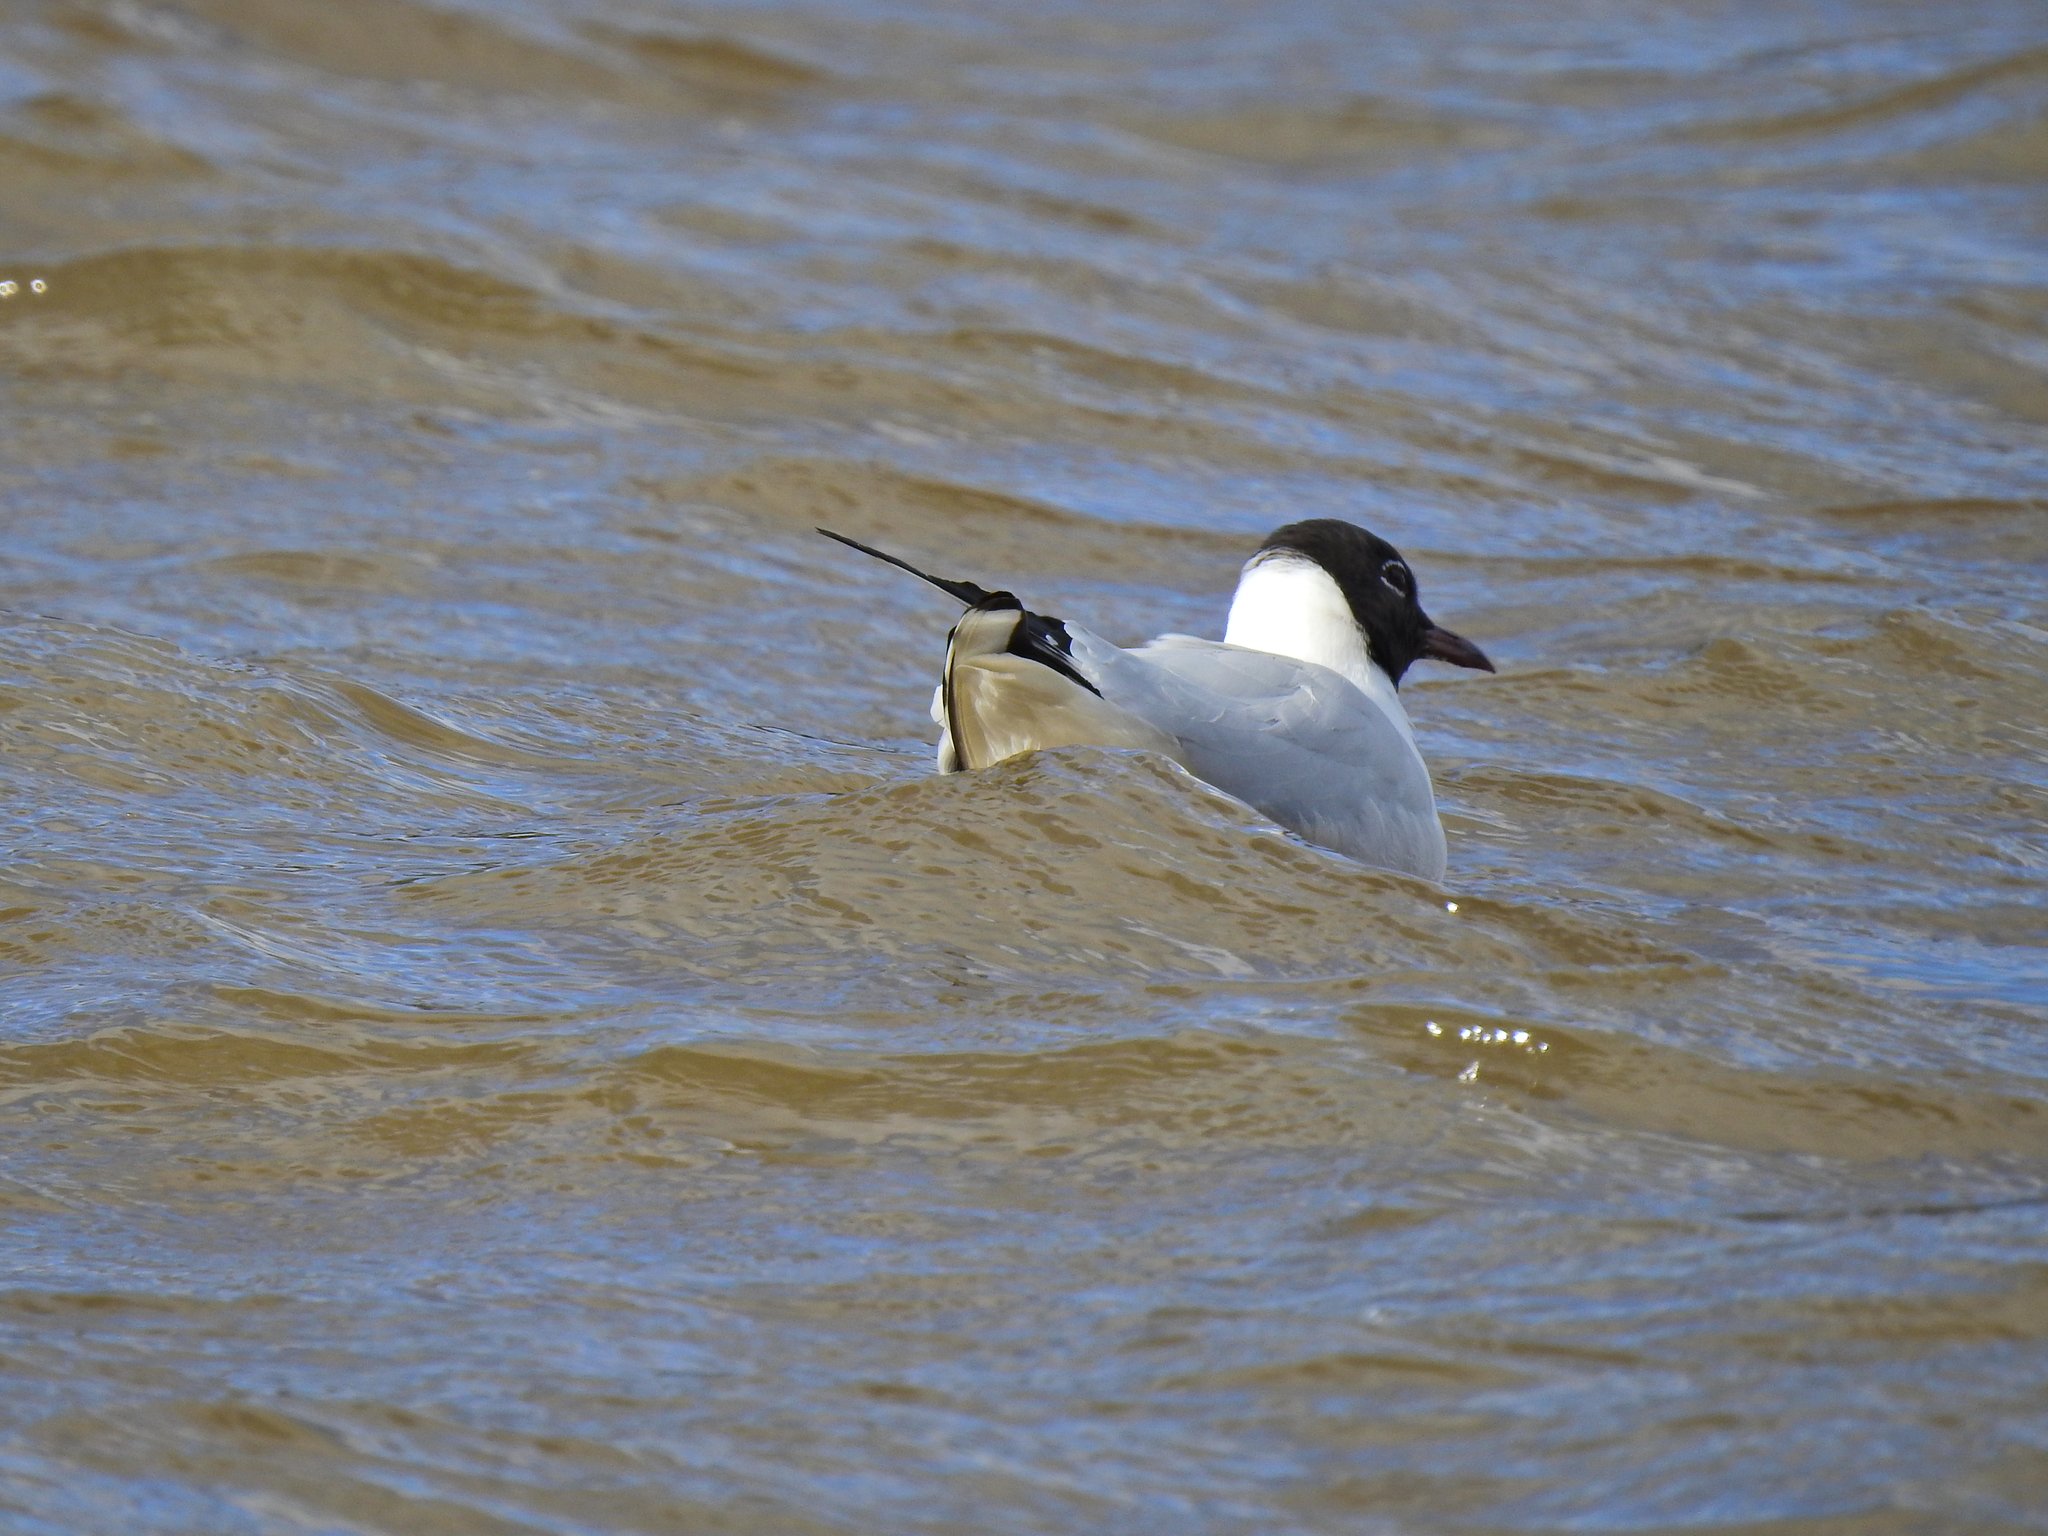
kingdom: Animalia
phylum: Chordata
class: Aves
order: Charadriiformes
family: Laridae
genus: Chroicocephalus
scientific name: Chroicocephalus ridibundus
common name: Black-headed gull
